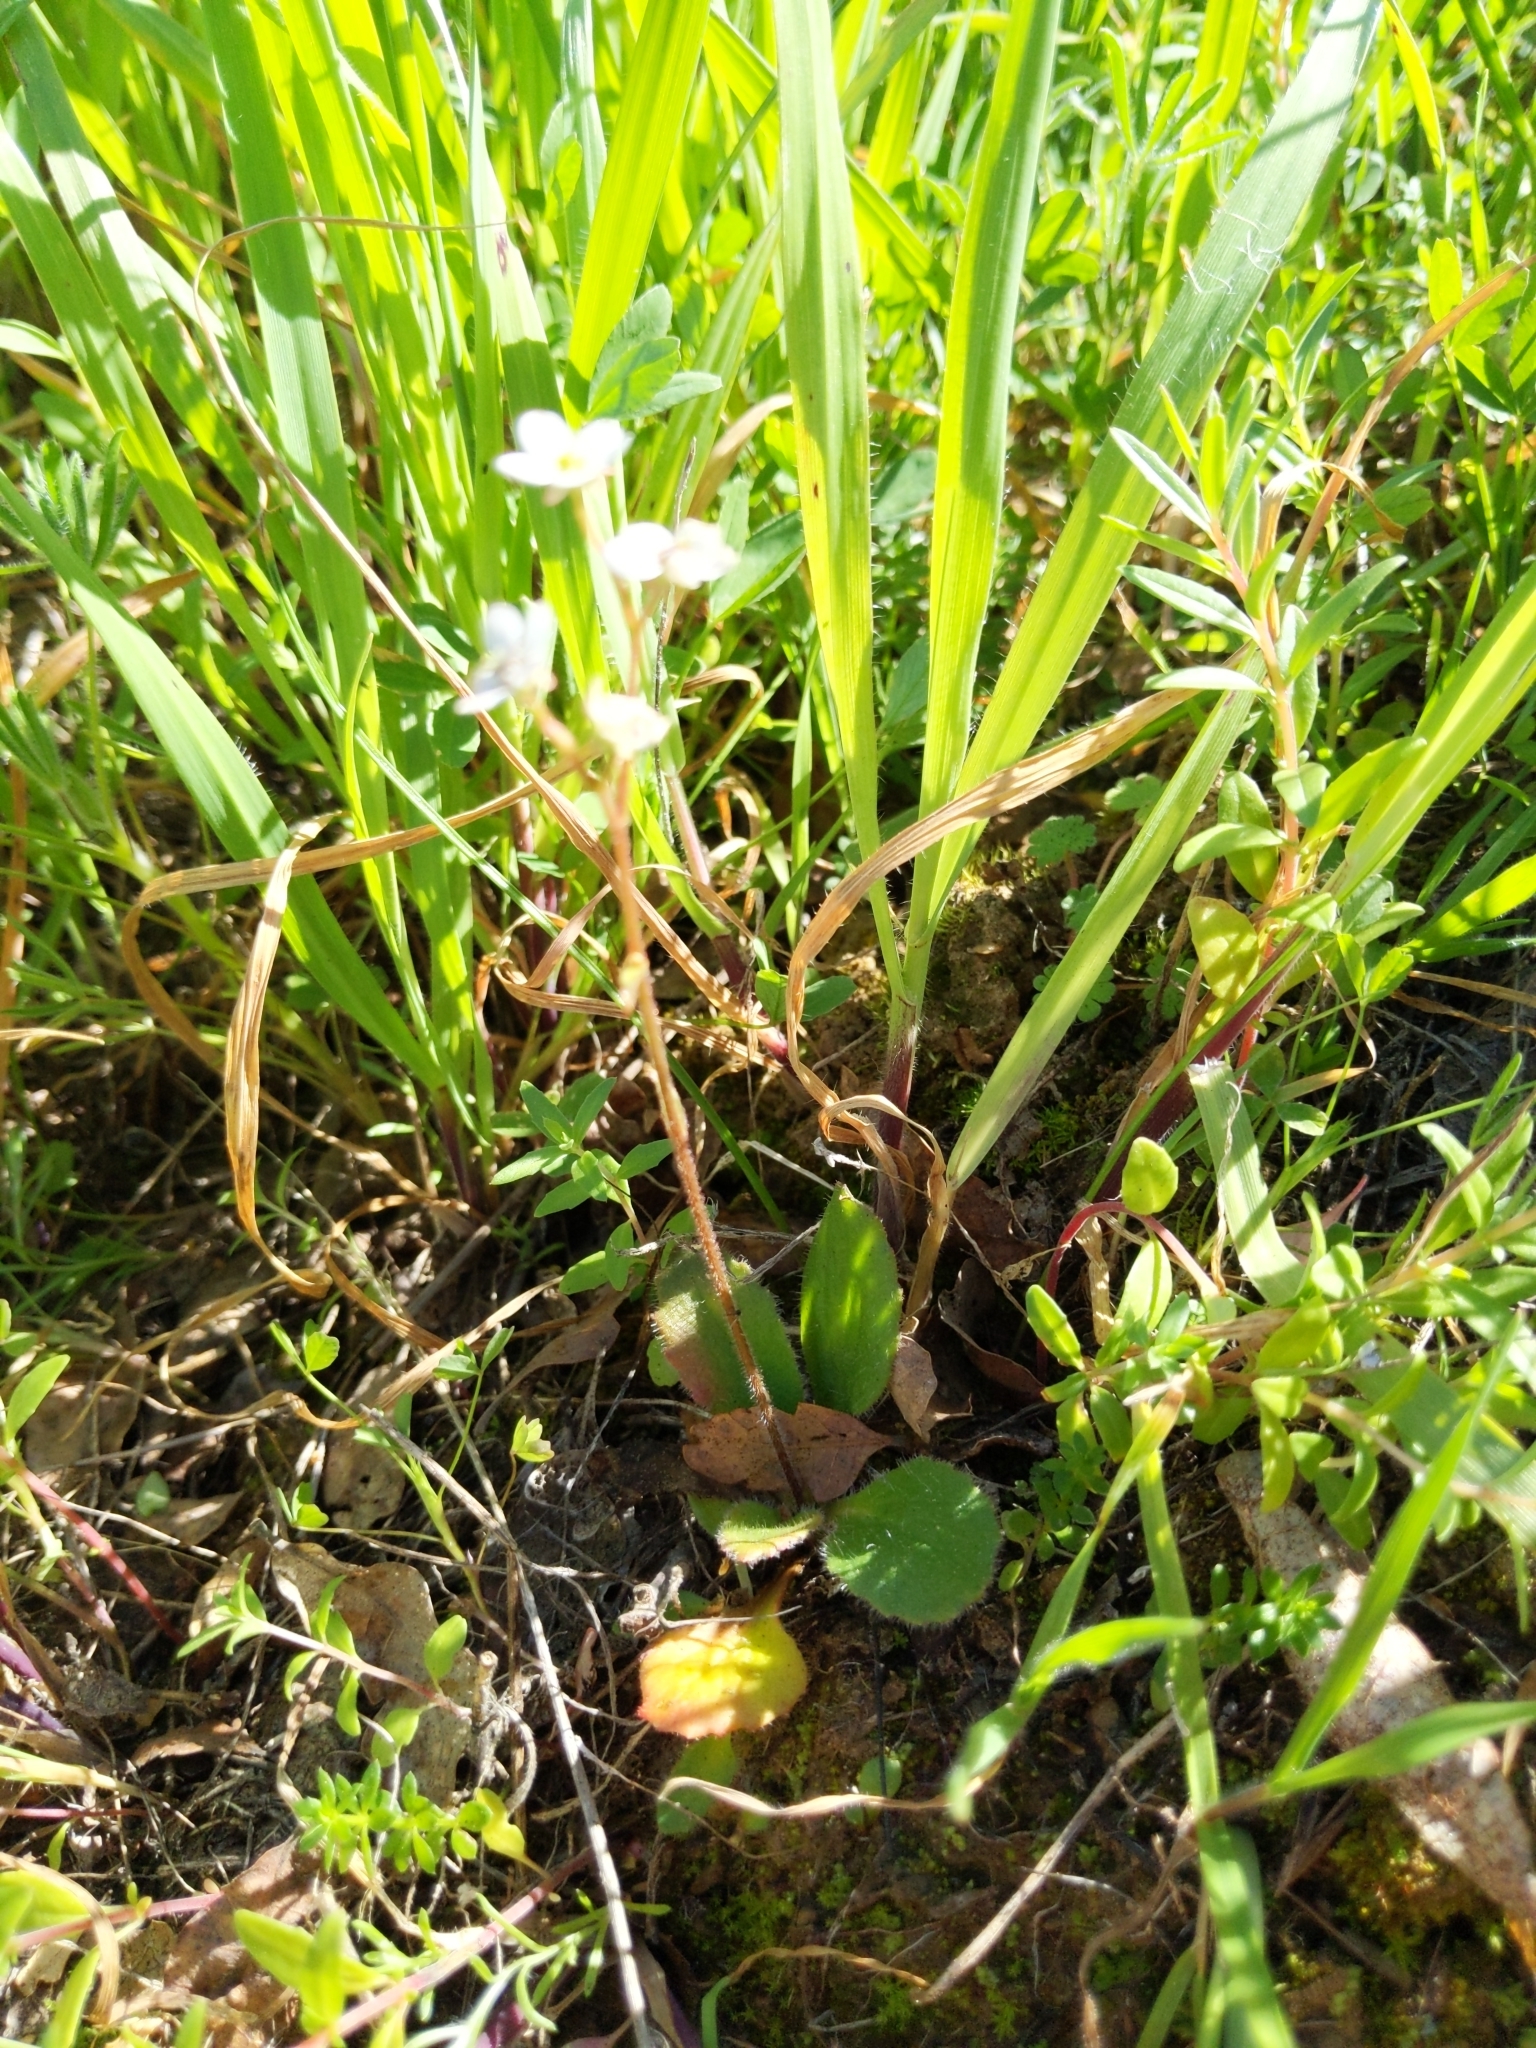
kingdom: Plantae
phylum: Tracheophyta
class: Magnoliopsida
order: Saxifragales
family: Saxifragaceae
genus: Micranthes
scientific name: Micranthes californica
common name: California saxifrage
